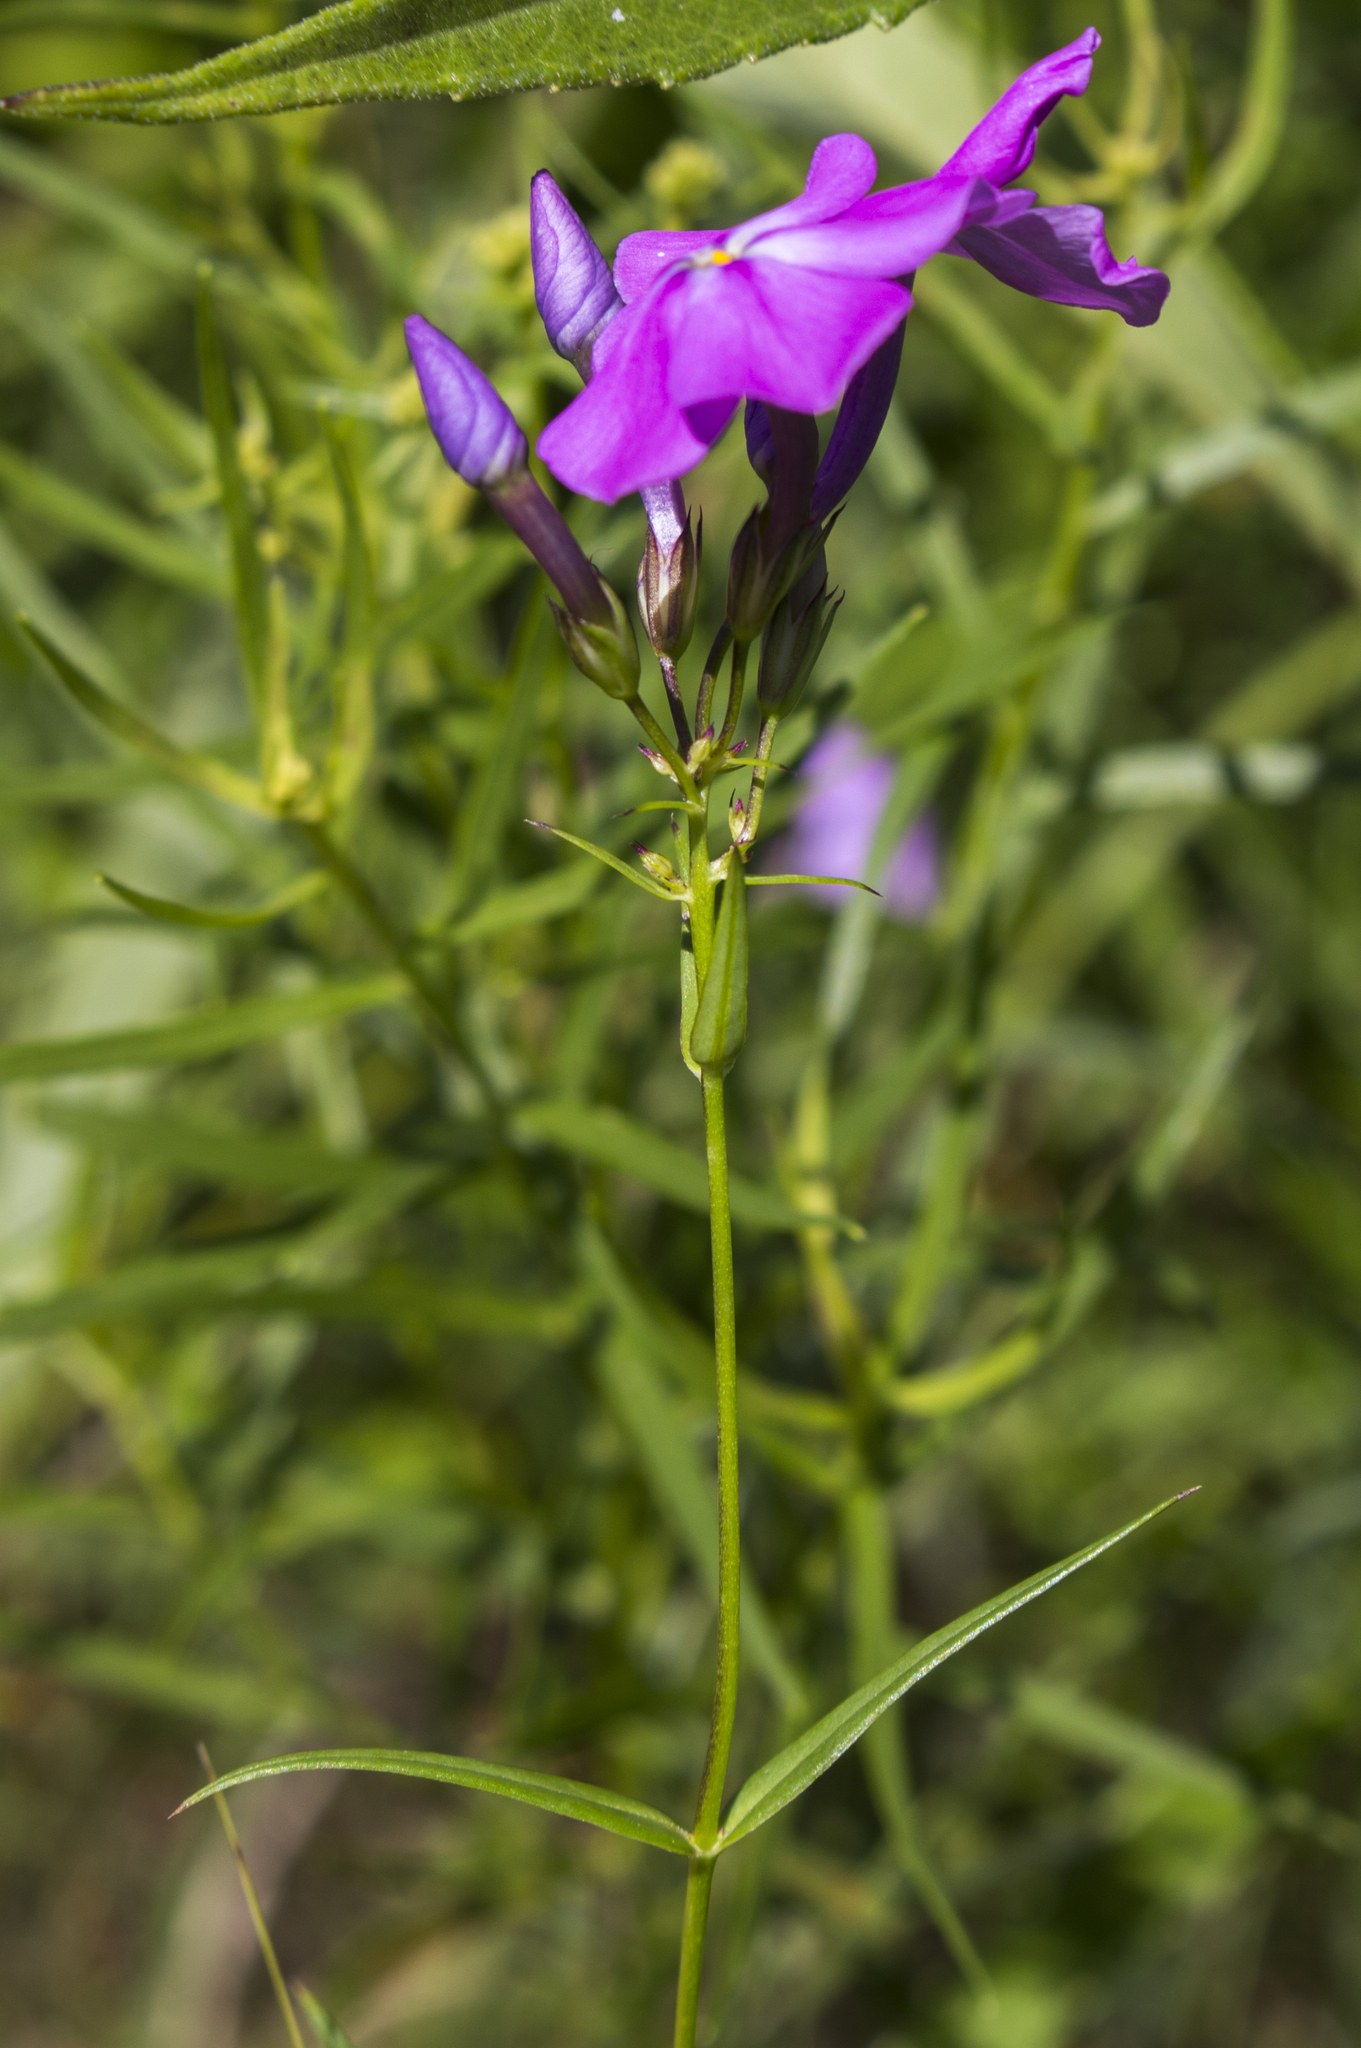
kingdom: Plantae
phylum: Tracheophyta
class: Magnoliopsida
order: Ericales
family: Polemoniaceae
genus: Phlox
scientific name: Phlox glaberrima
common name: Smooth phlox
